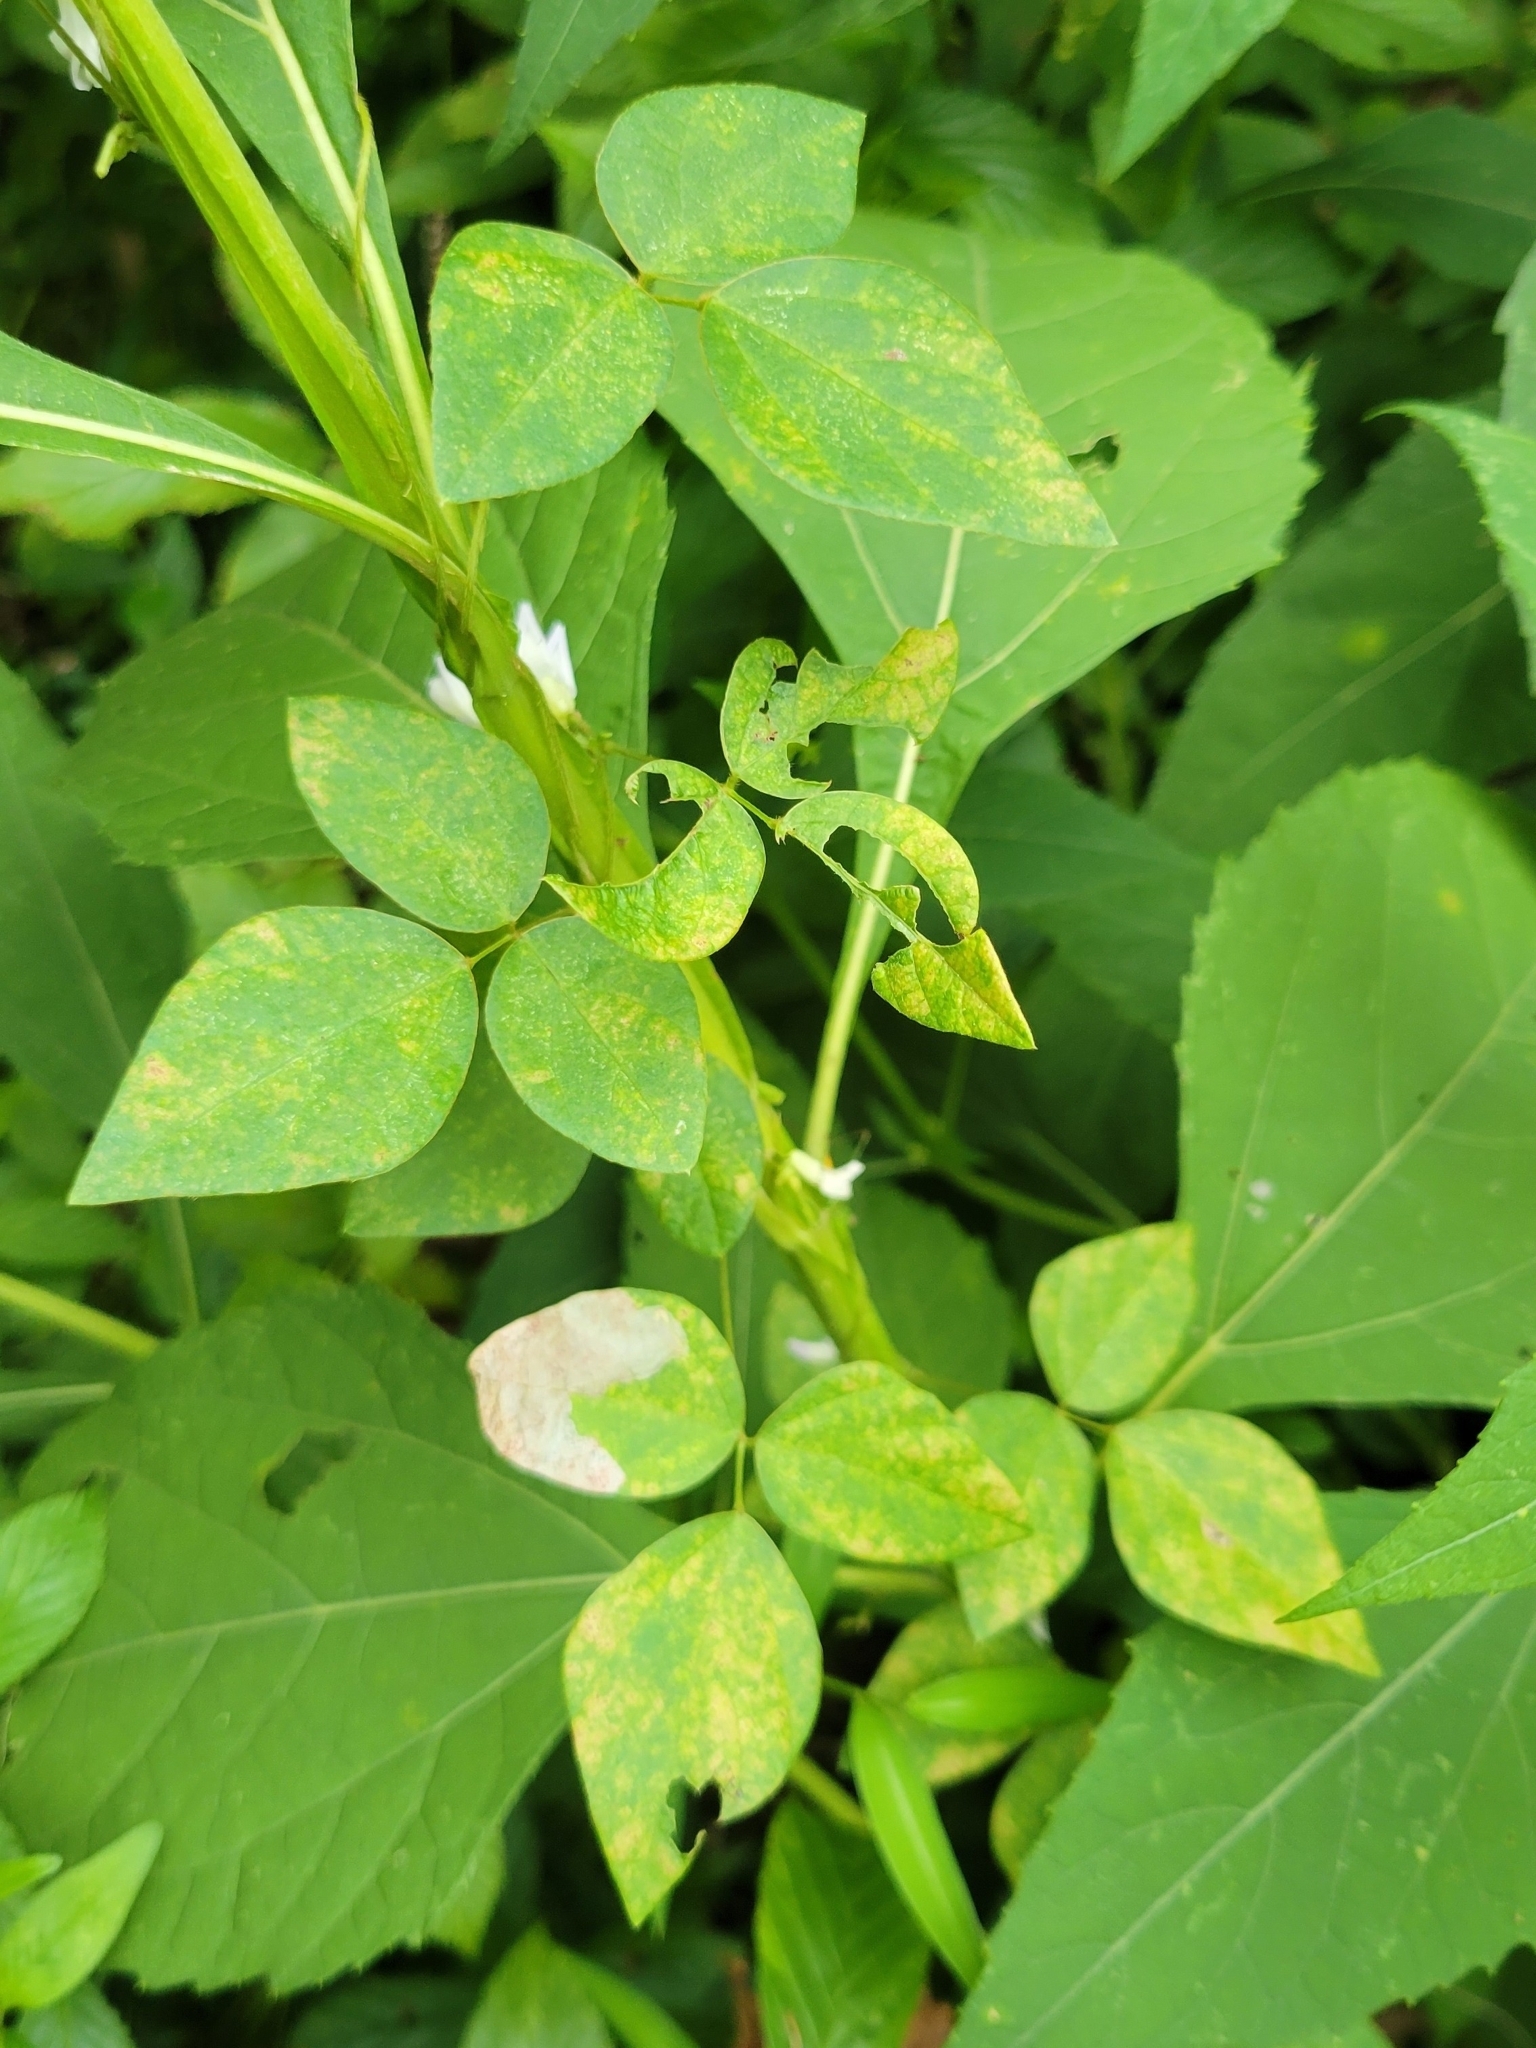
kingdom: Plantae
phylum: Tracheophyta
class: Magnoliopsida
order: Fabales
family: Fabaceae
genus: Amphicarpaea
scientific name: Amphicarpaea bracteata
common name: American hog peanut
